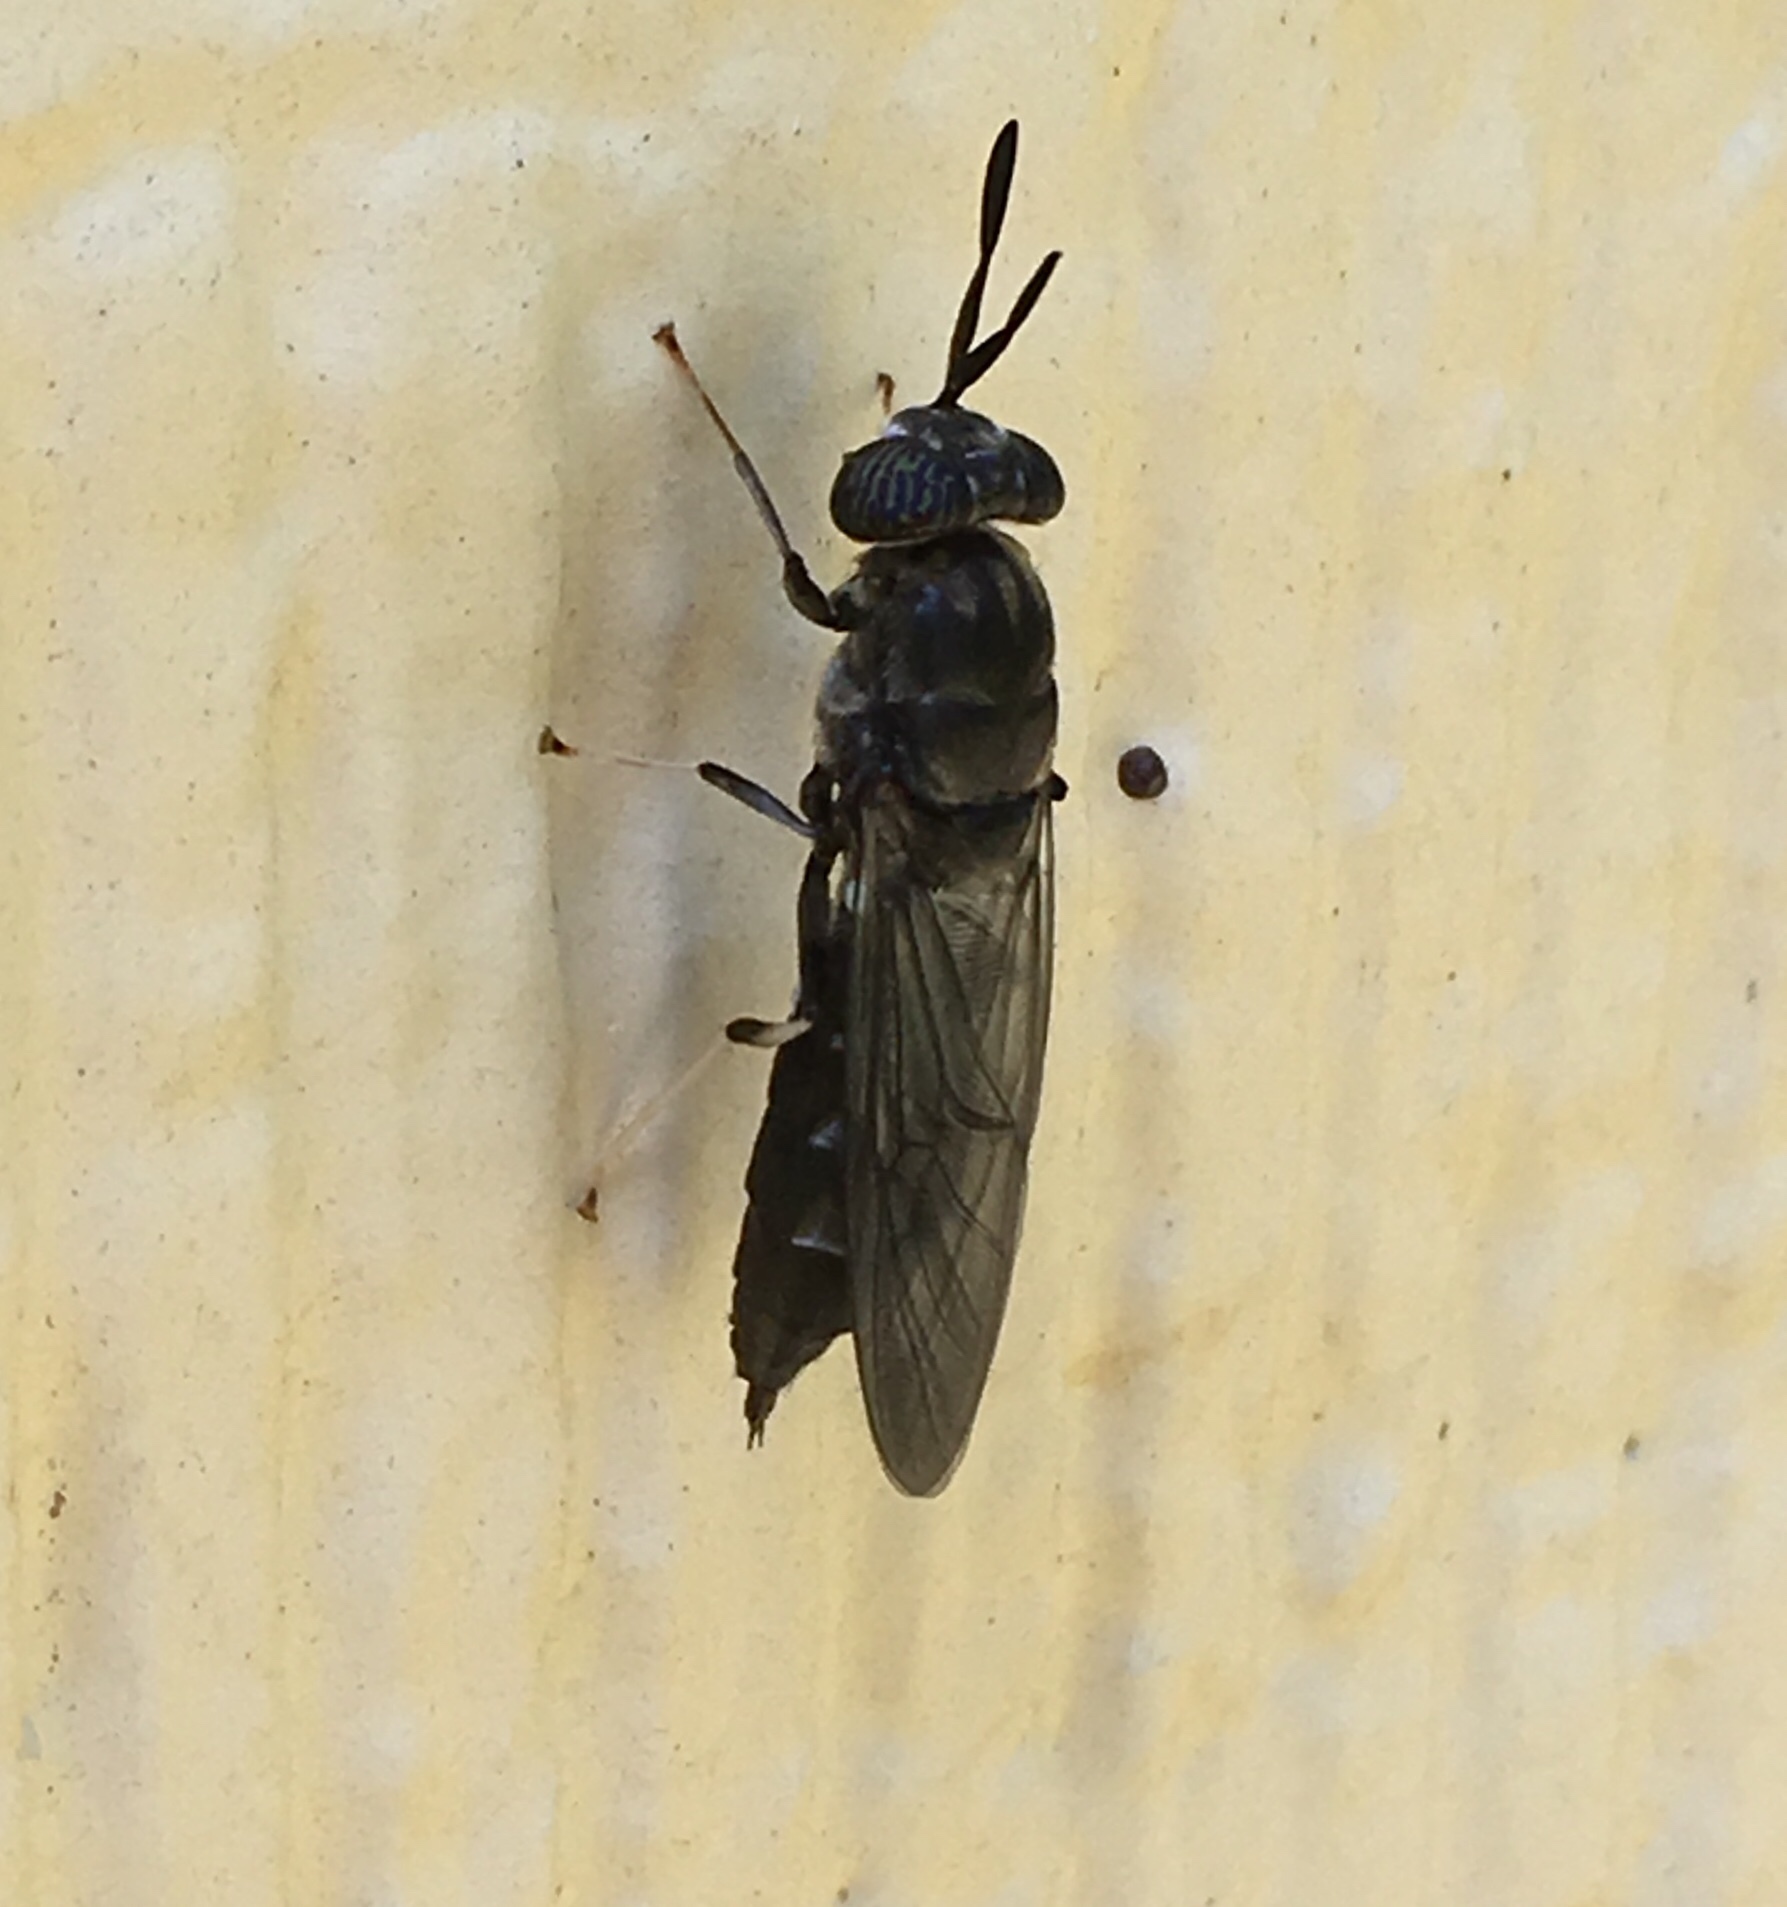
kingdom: Animalia
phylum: Arthropoda
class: Insecta
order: Diptera
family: Stratiomyidae
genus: Hermetia
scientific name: Hermetia illucens
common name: Black soldier fly
